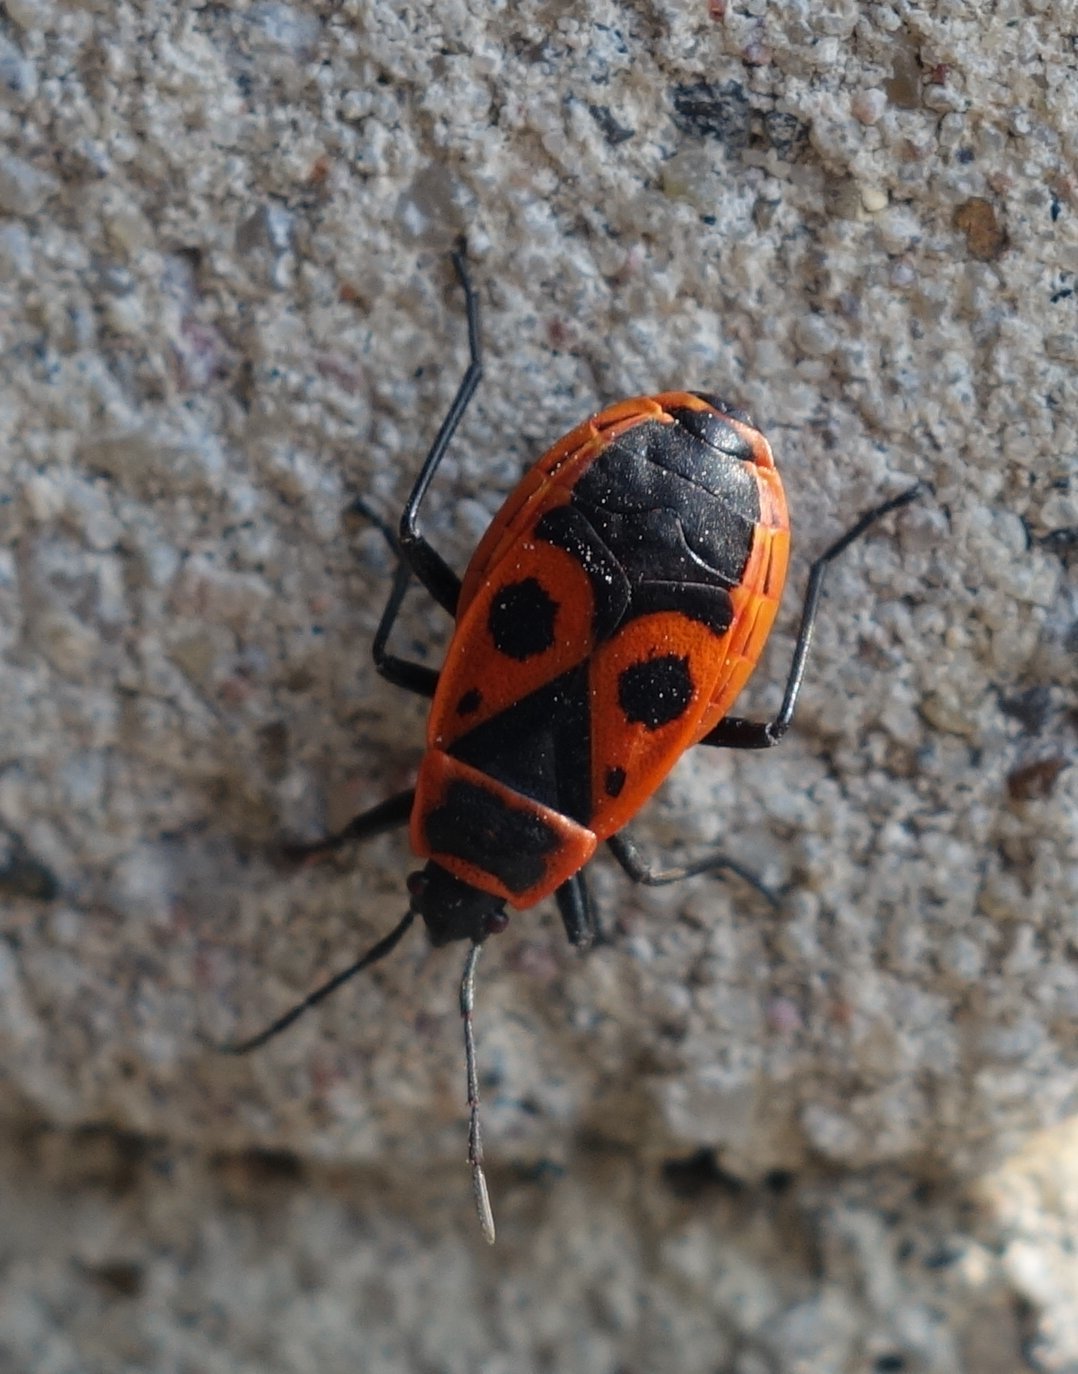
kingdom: Animalia
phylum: Arthropoda
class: Insecta
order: Hemiptera
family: Pyrrhocoridae
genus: Pyrrhocoris
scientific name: Pyrrhocoris apterus
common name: Firebug
